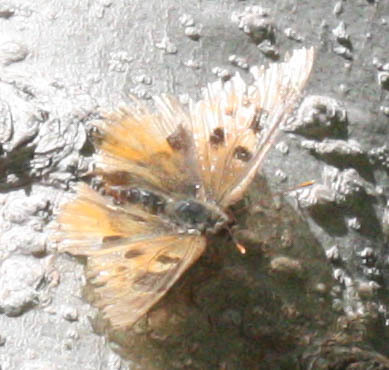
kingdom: Animalia
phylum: Arthropoda
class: Insecta
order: Lepidoptera
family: Nymphalidae
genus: Nymphalis
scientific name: Nymphalis californica
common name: California tortoiseshell
